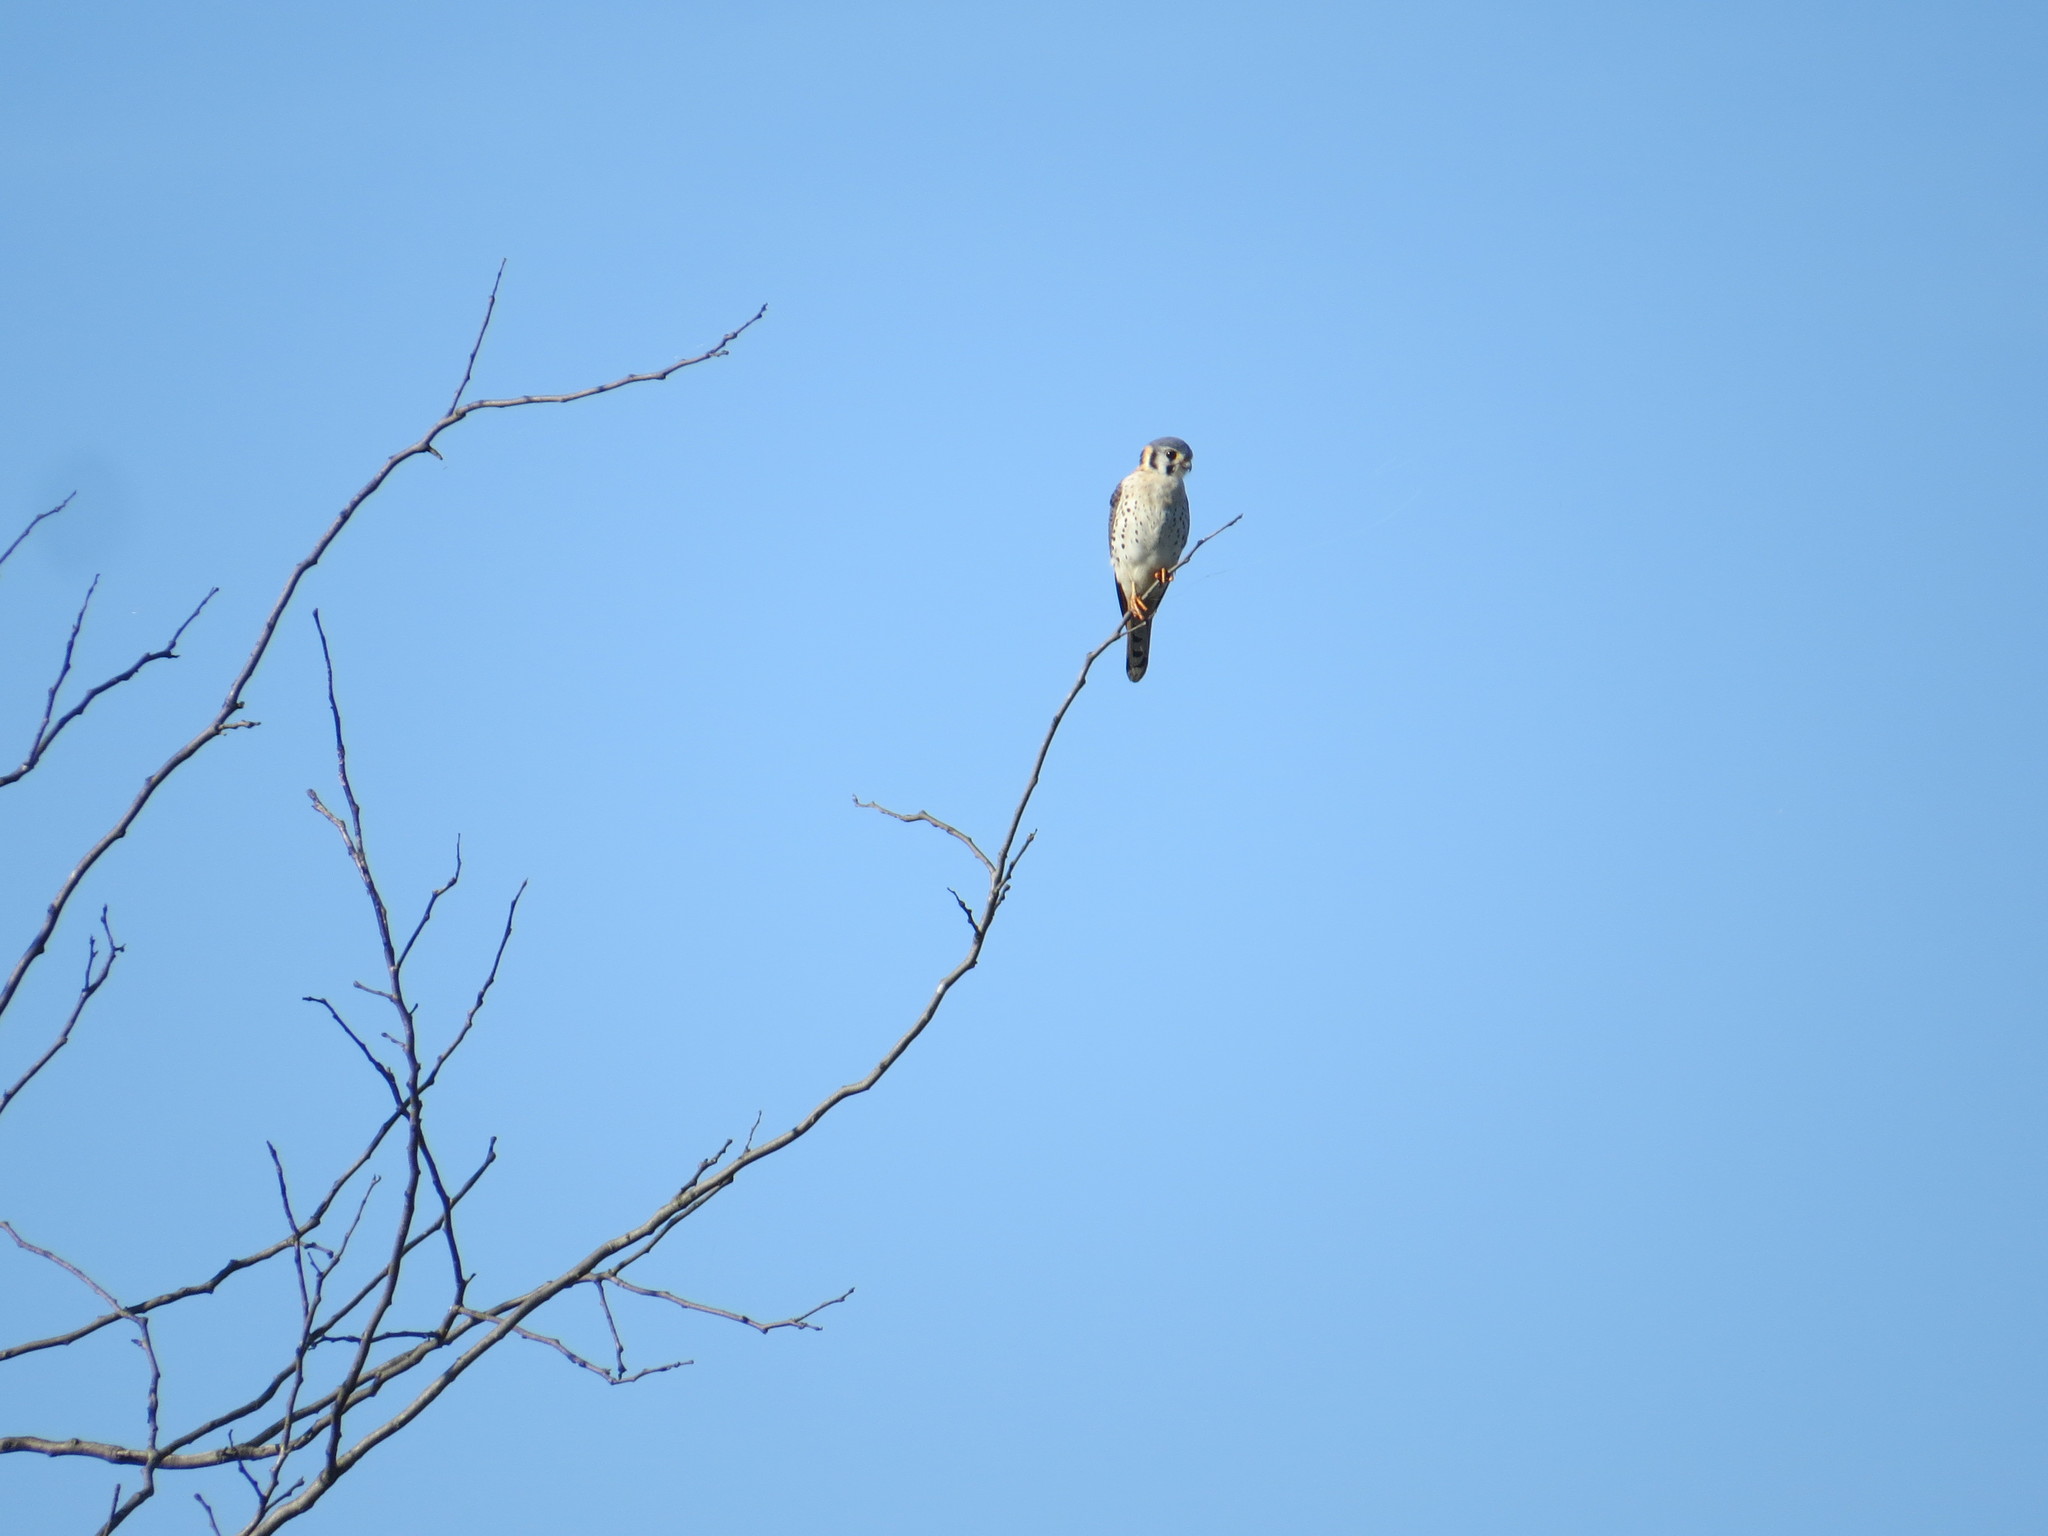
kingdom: Animalia
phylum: Chordata
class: Aves
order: Falconiformes
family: Falconidae
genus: Falco
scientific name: Falco sparverius
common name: American kestrel
